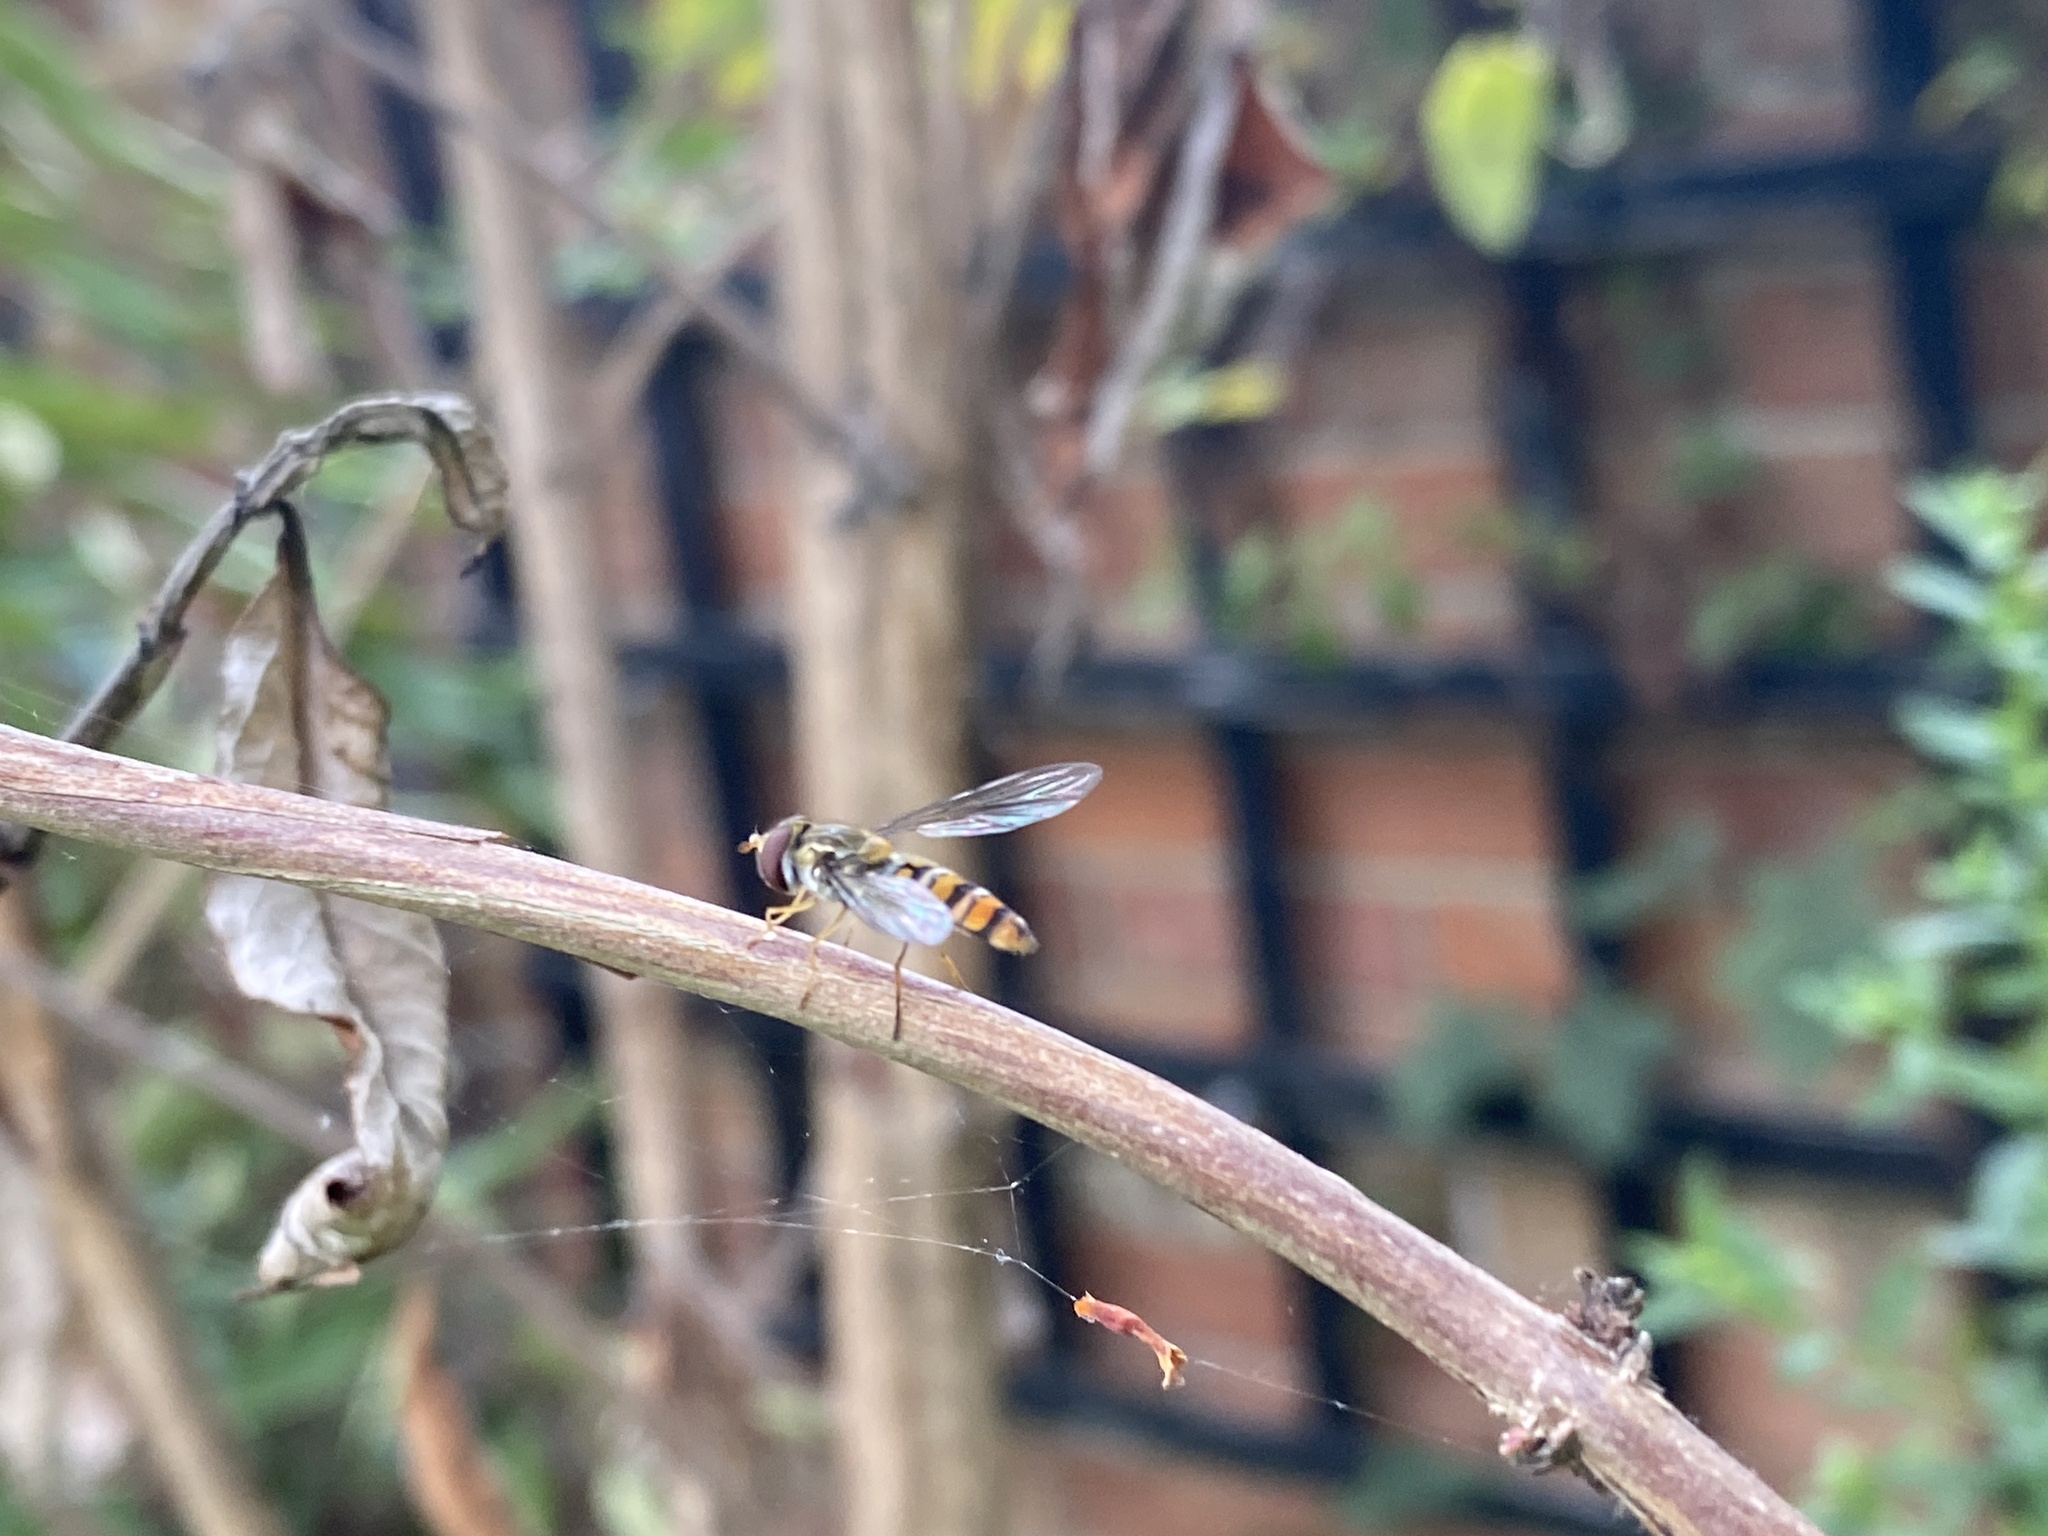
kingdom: Animalia
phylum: Arthropoda
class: Insecta
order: Diptera
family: Syrphidae
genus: Episyrphus
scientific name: Episyrphus balteatus
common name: Marmalade hoverfly
